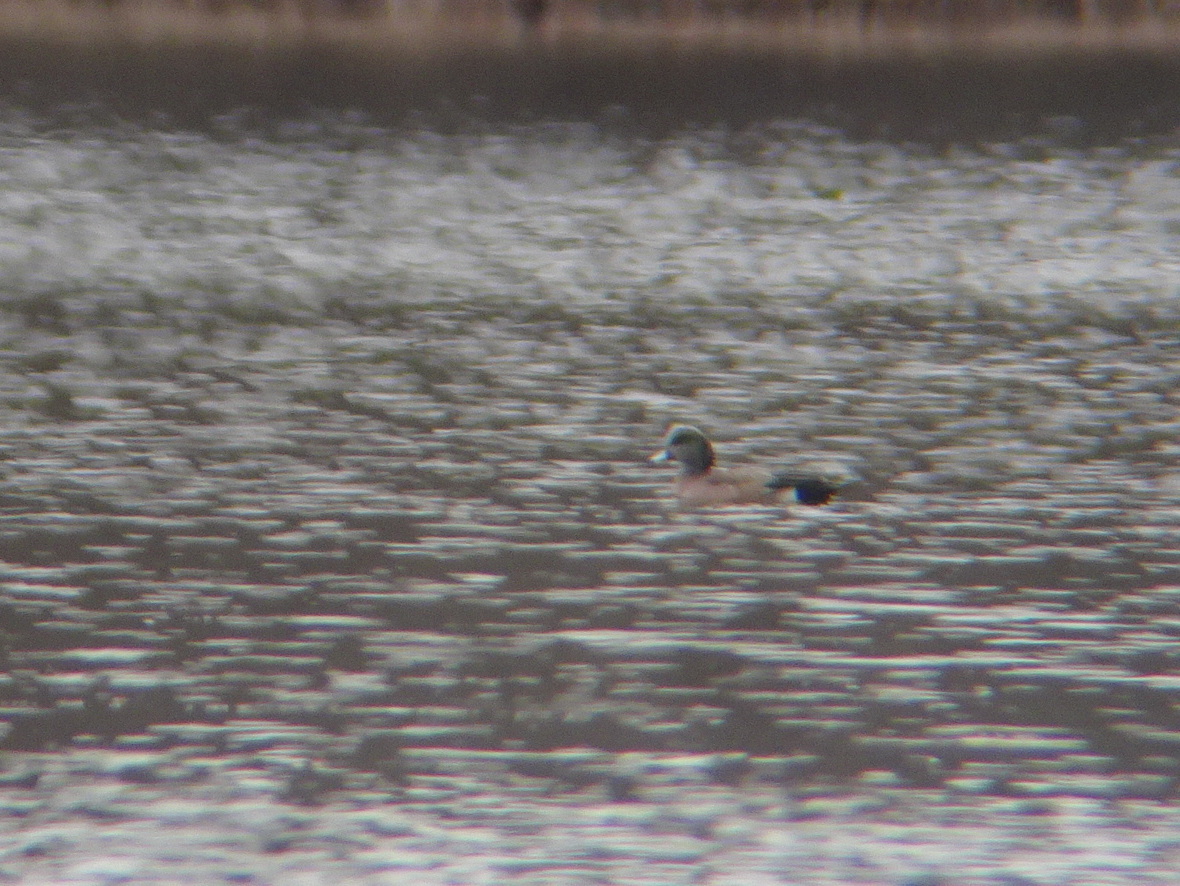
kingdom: Animalia
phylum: Chordata
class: Aves
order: Anseriformes
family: Anatidae
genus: Mareca
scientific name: Mareca americana
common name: American wigeon
